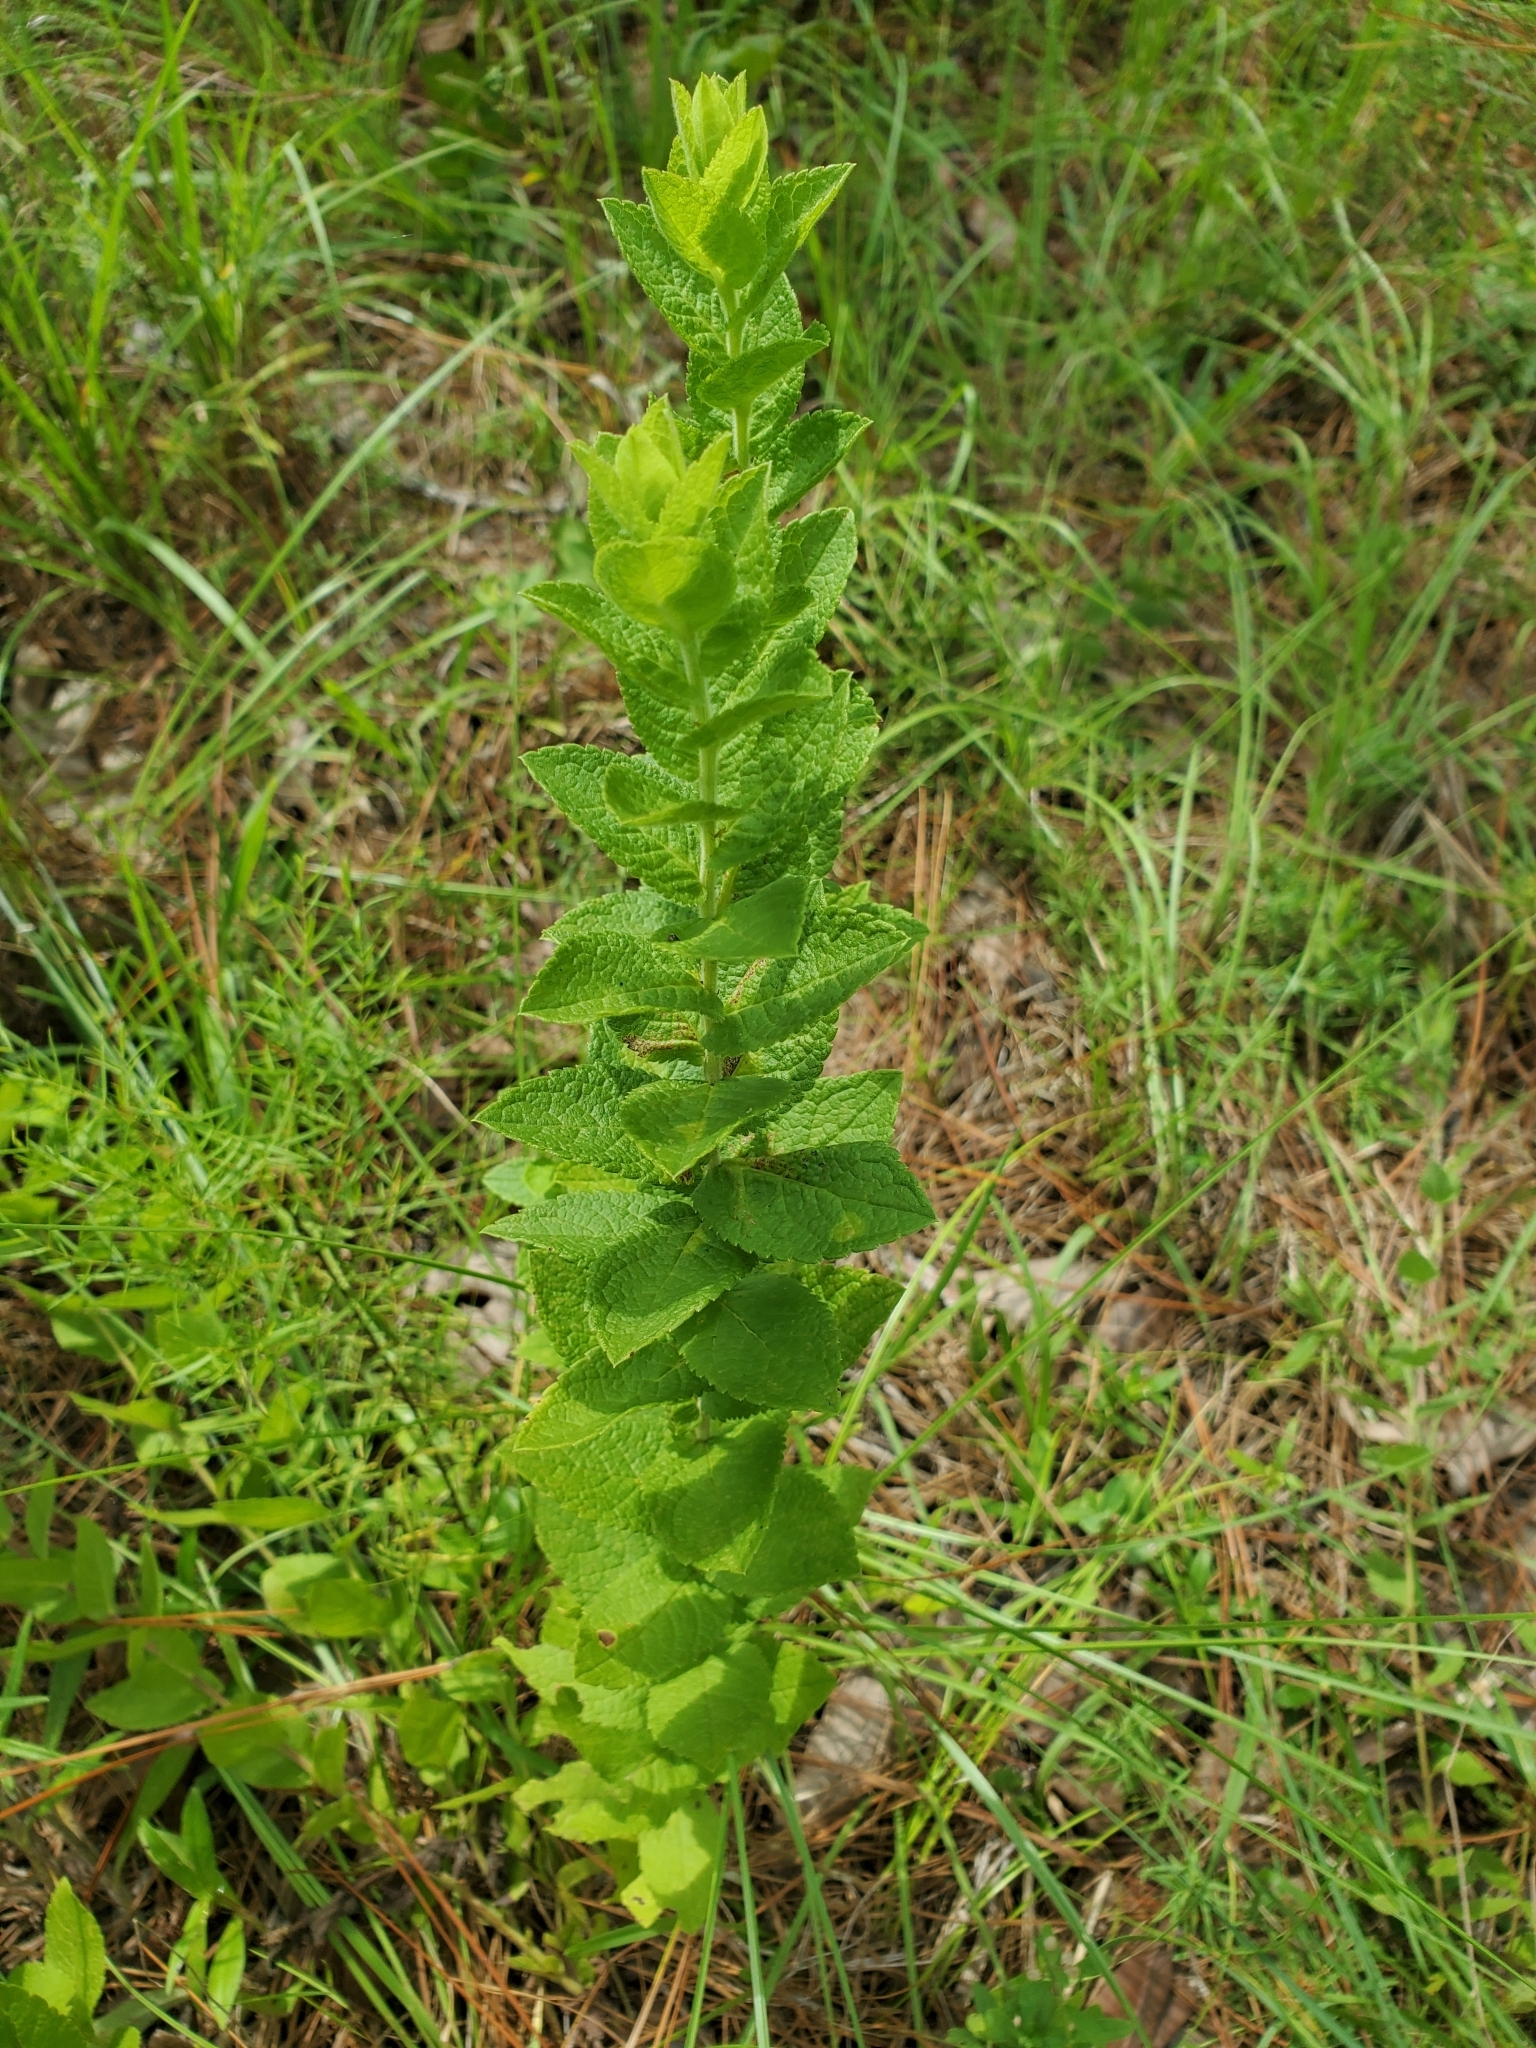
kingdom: Plantae
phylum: Tracheophyta
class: Magnoliopsida
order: Asterales
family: Asteraceae
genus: Eupatorium
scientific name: Eupatorium rotundifolium
